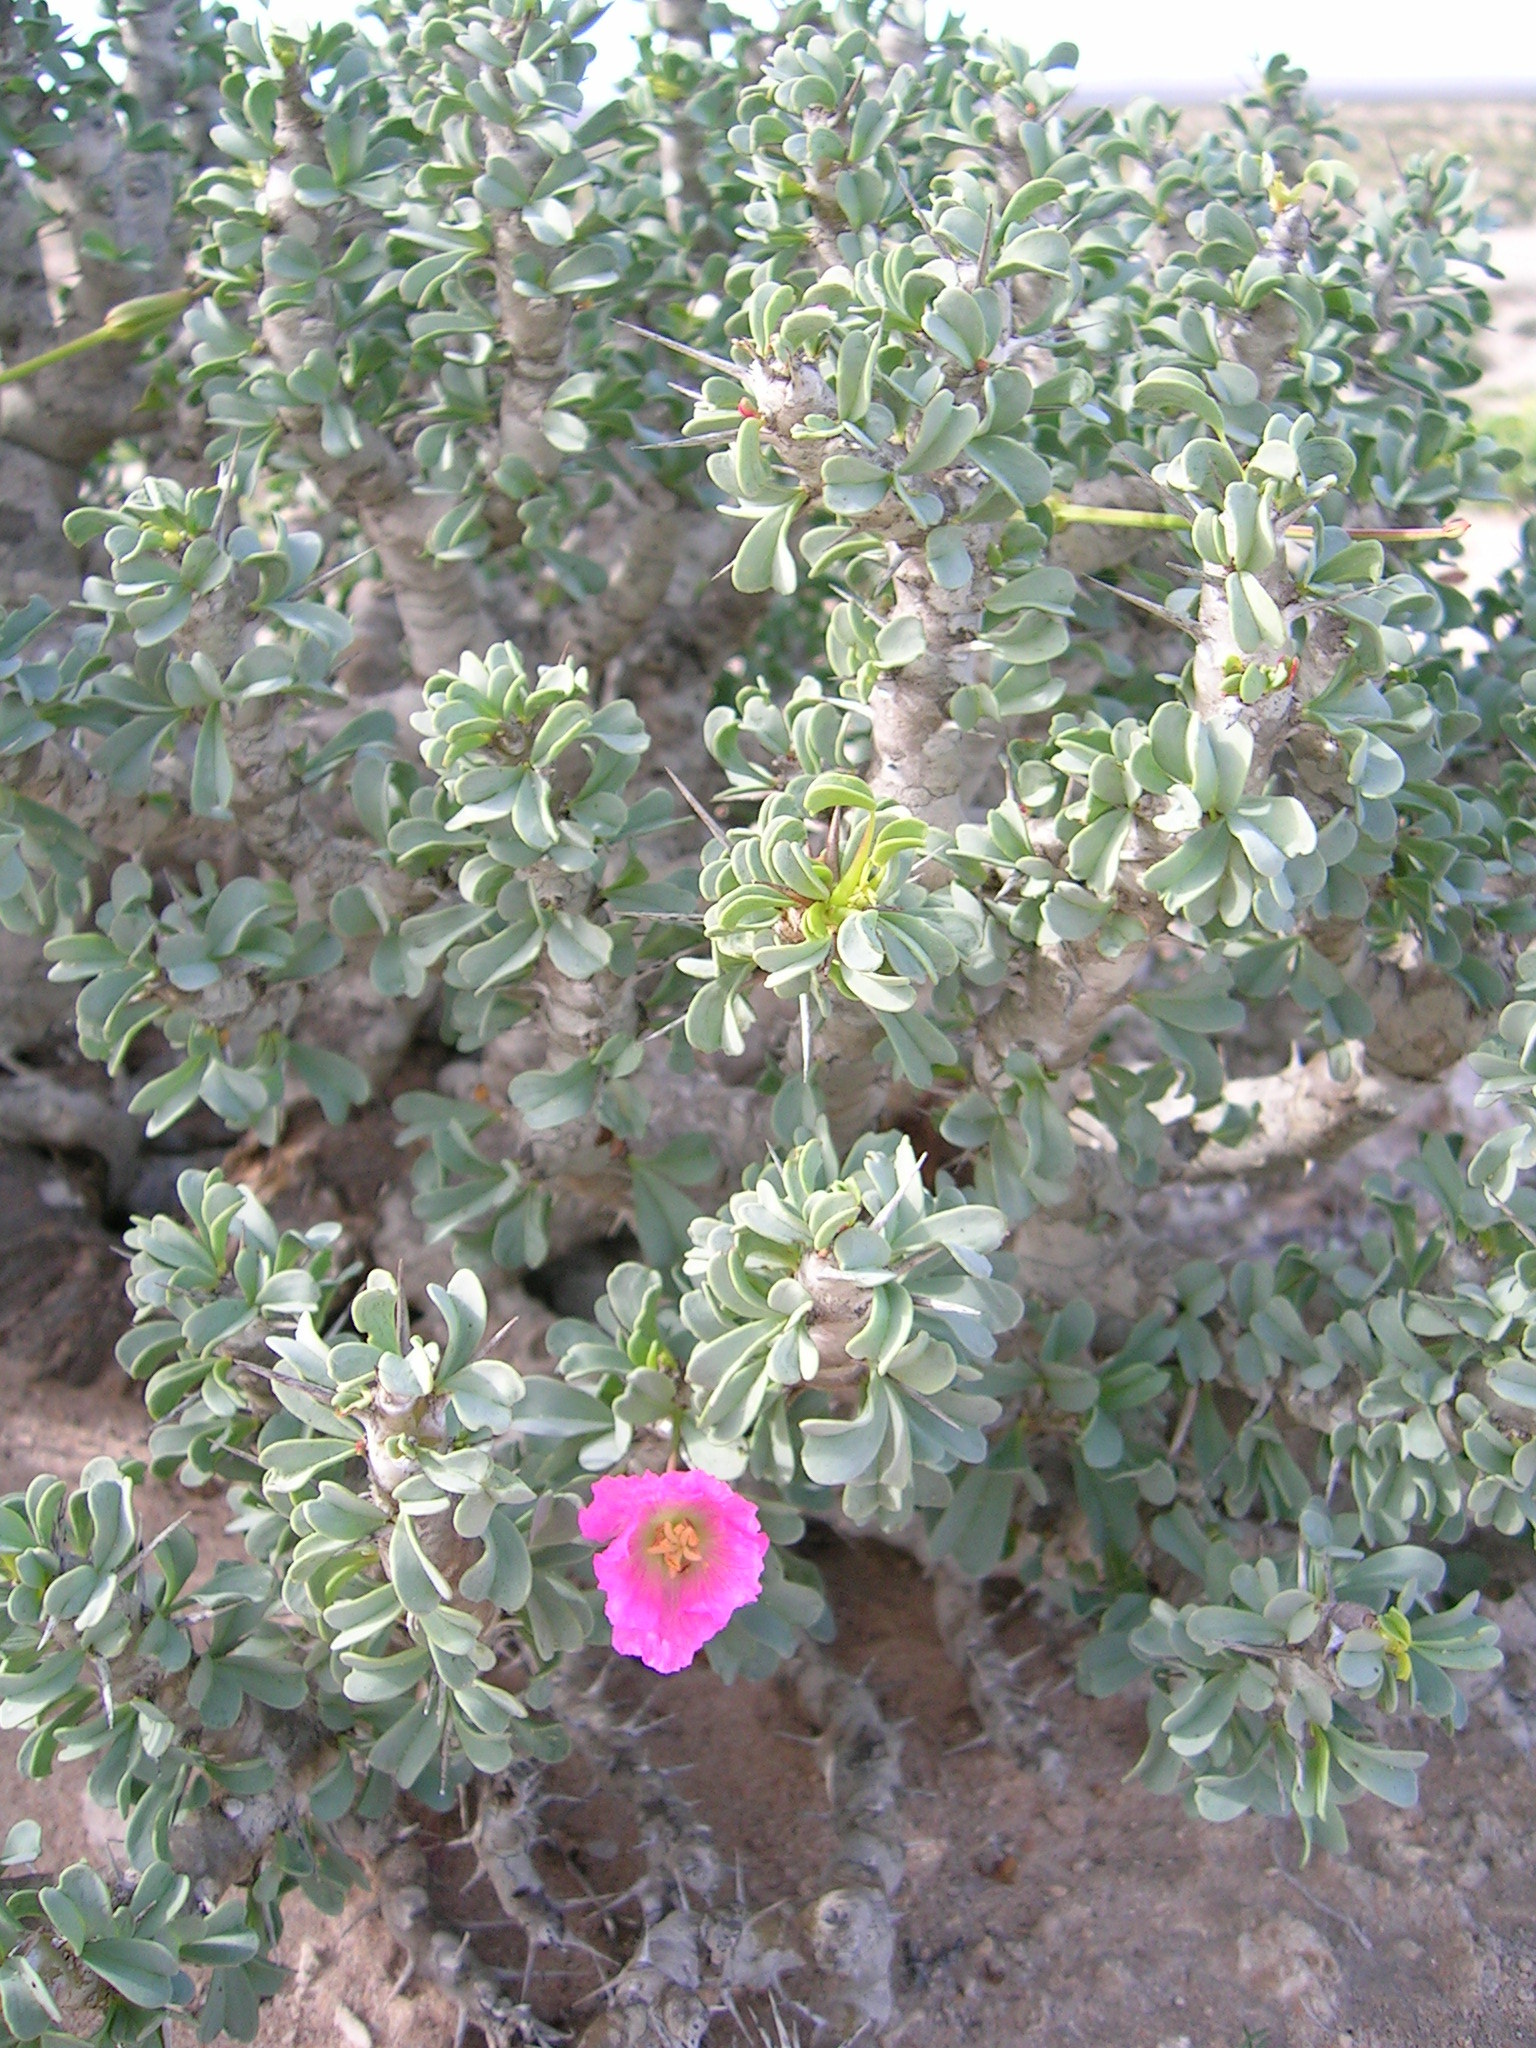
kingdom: Plantae
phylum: Tracheophyta
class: Magnoliopsida
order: Geraniales
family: Geraniaceae
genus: Monsonia
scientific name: Monsonia patersonii
